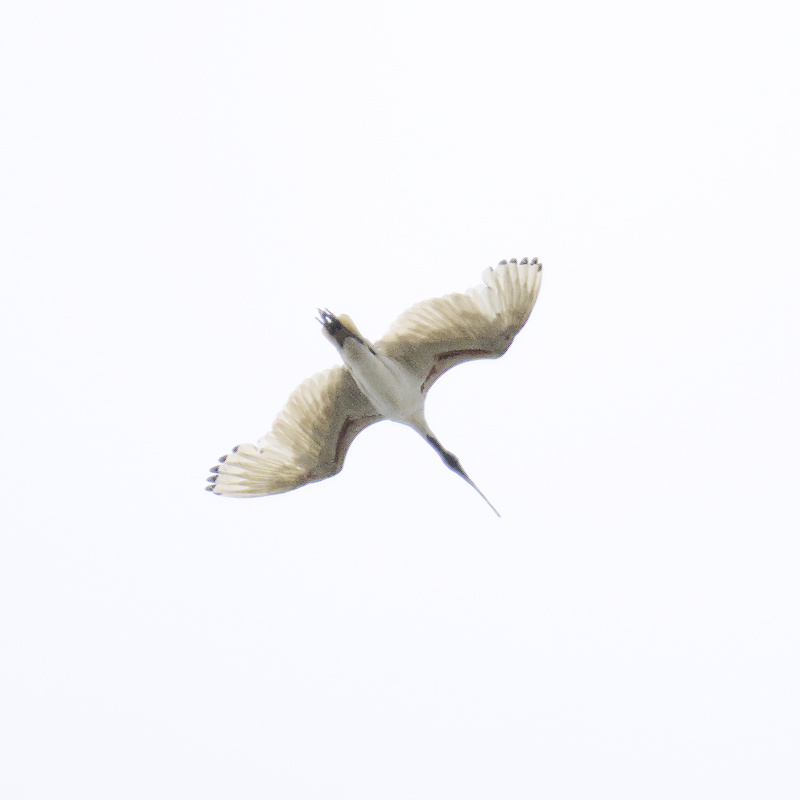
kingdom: Animalia
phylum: Chordata
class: Aves
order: Pelecaniformes
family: Threskiornithidae
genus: Threskiornis
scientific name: Threskiornis molucca
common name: Australian white ibis
